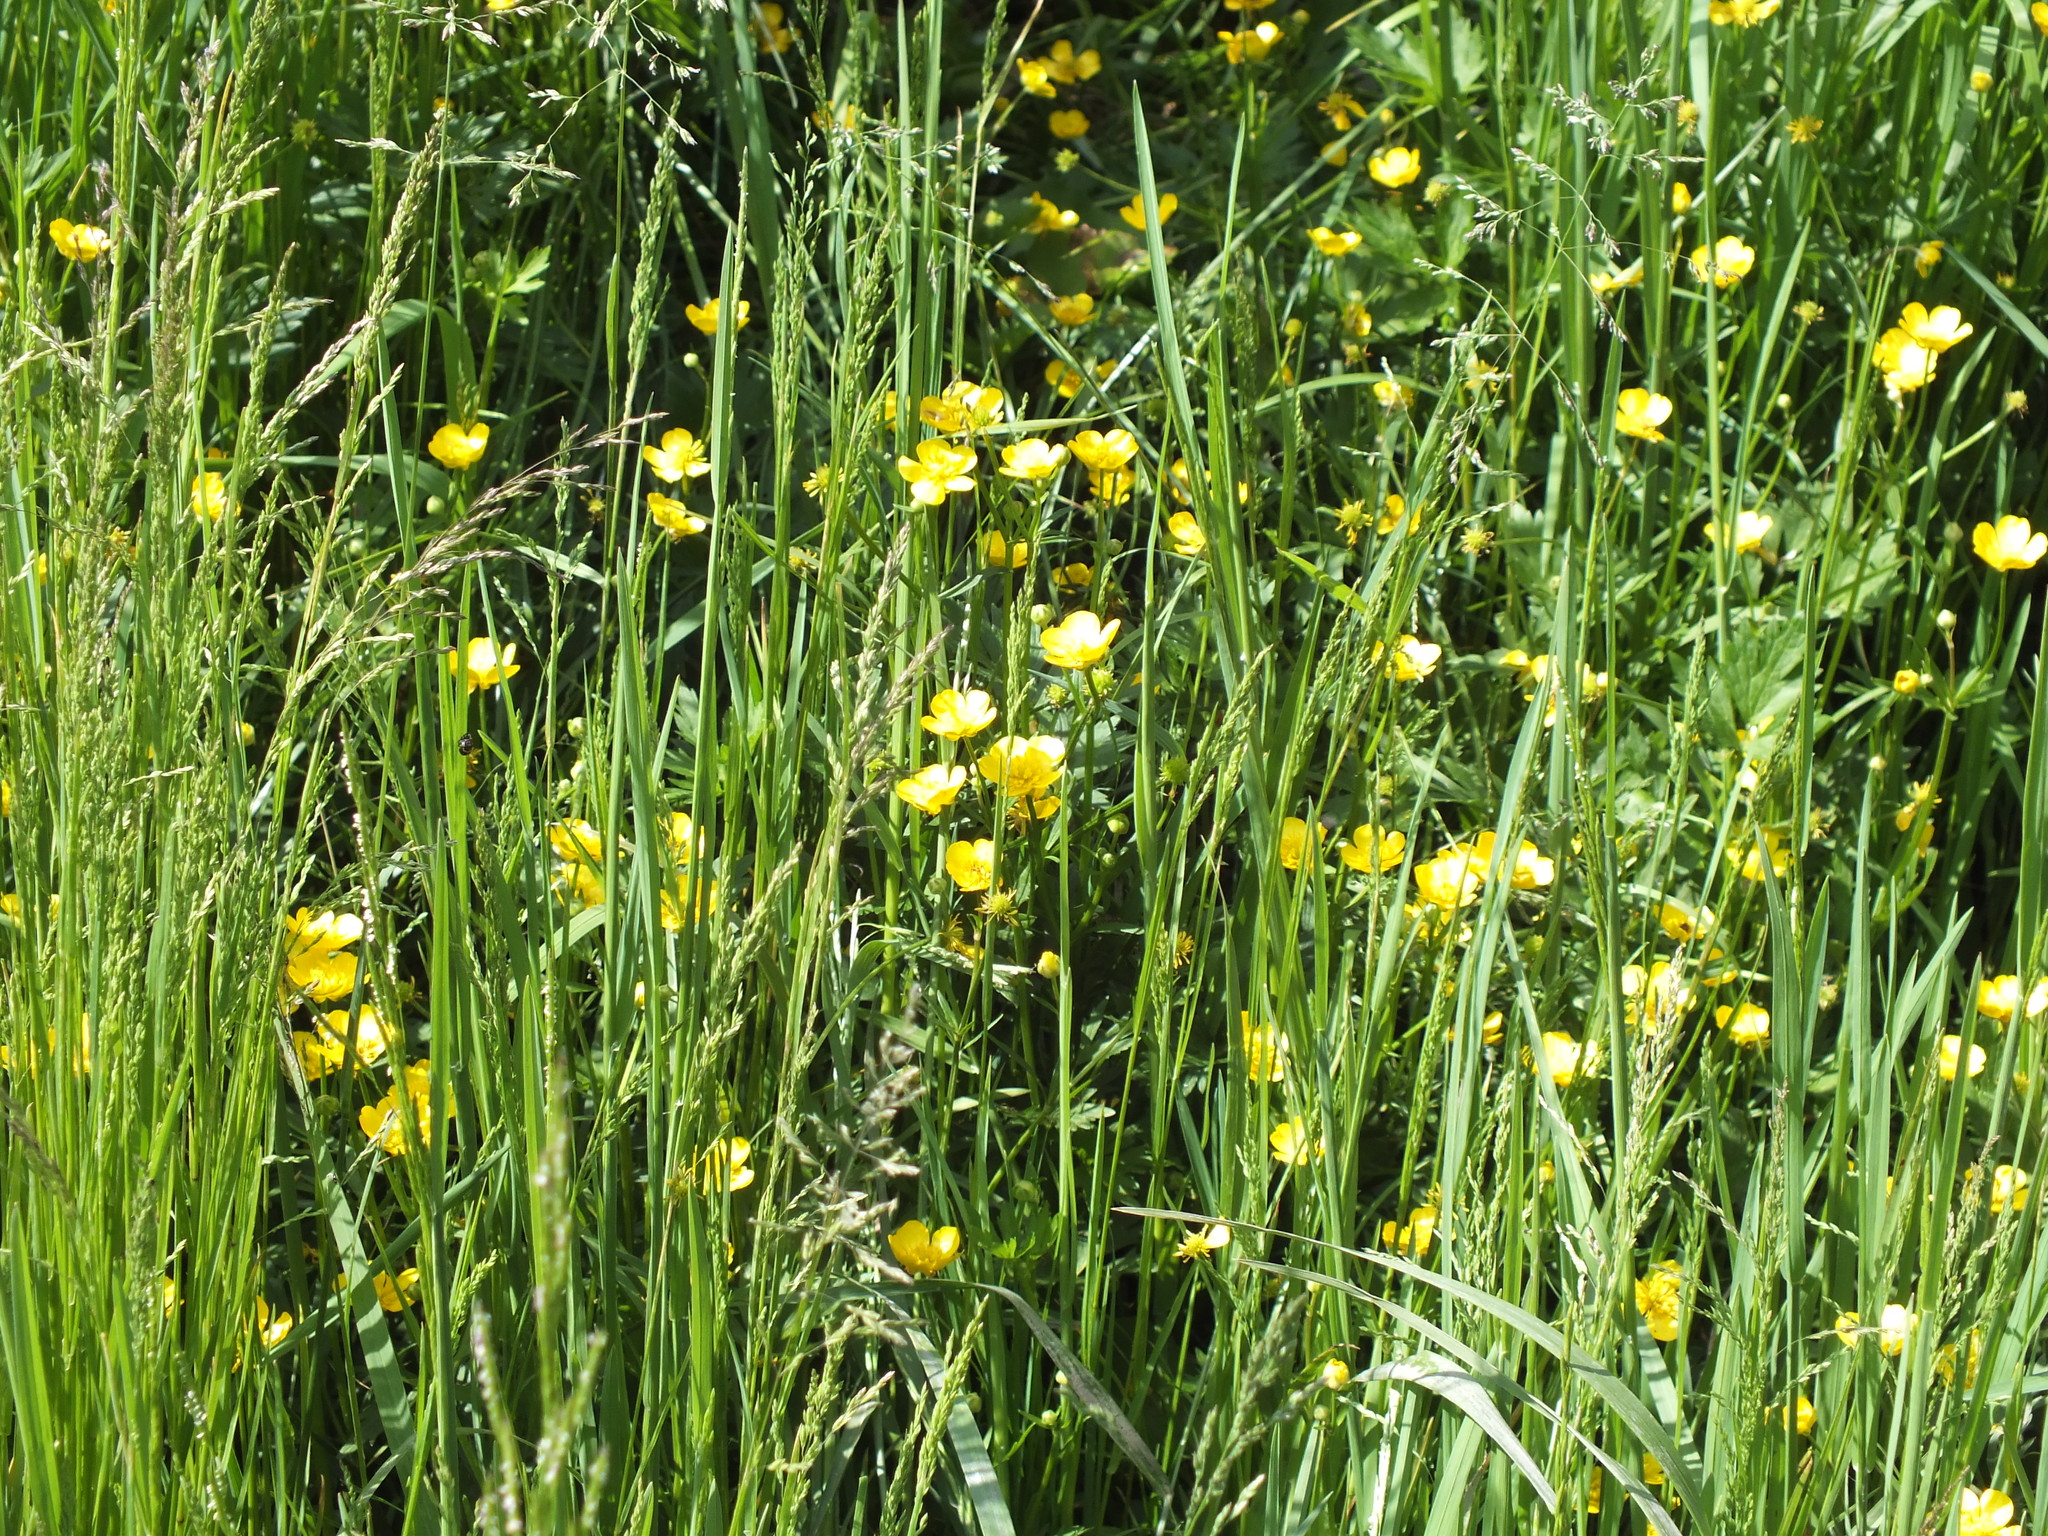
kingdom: Plantae
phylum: Tracheophyta
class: Magnoliopsida
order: Ranunculales
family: Ranunculaceae
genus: Ranunculus
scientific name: Ranunculus repens
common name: Creeping buttercup
